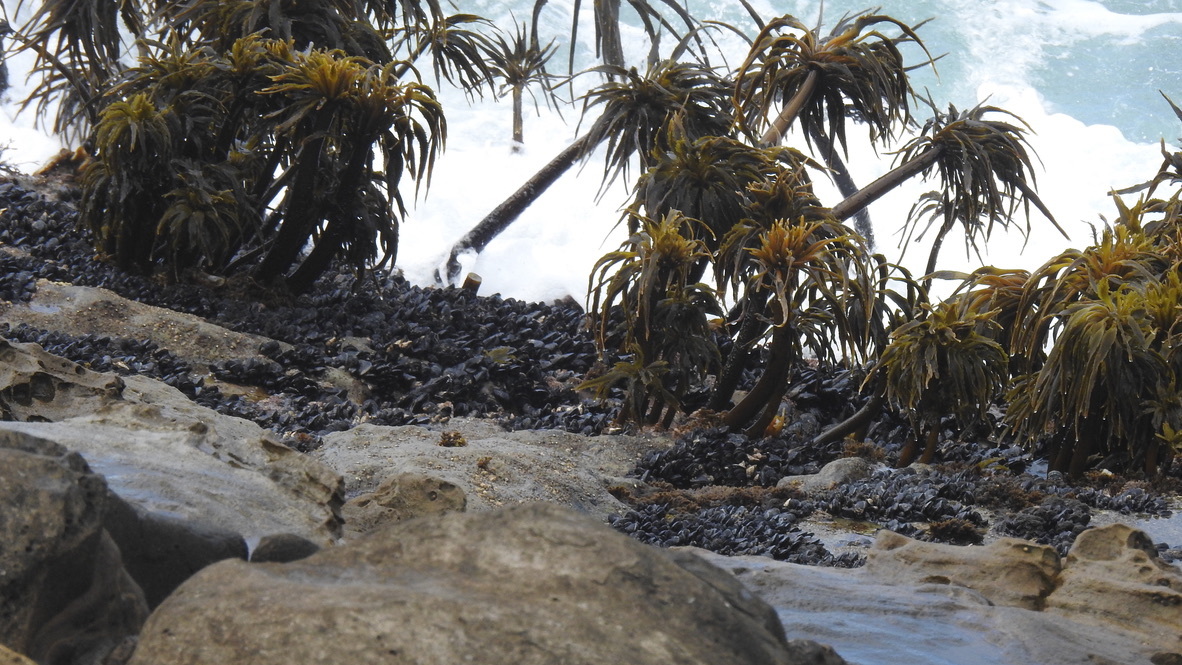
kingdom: Chromista
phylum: Ochrophyta
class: Phaeophyceae
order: Laminariales
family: Laminariaceae
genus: Postelsia
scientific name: Postelsia palmiformis
